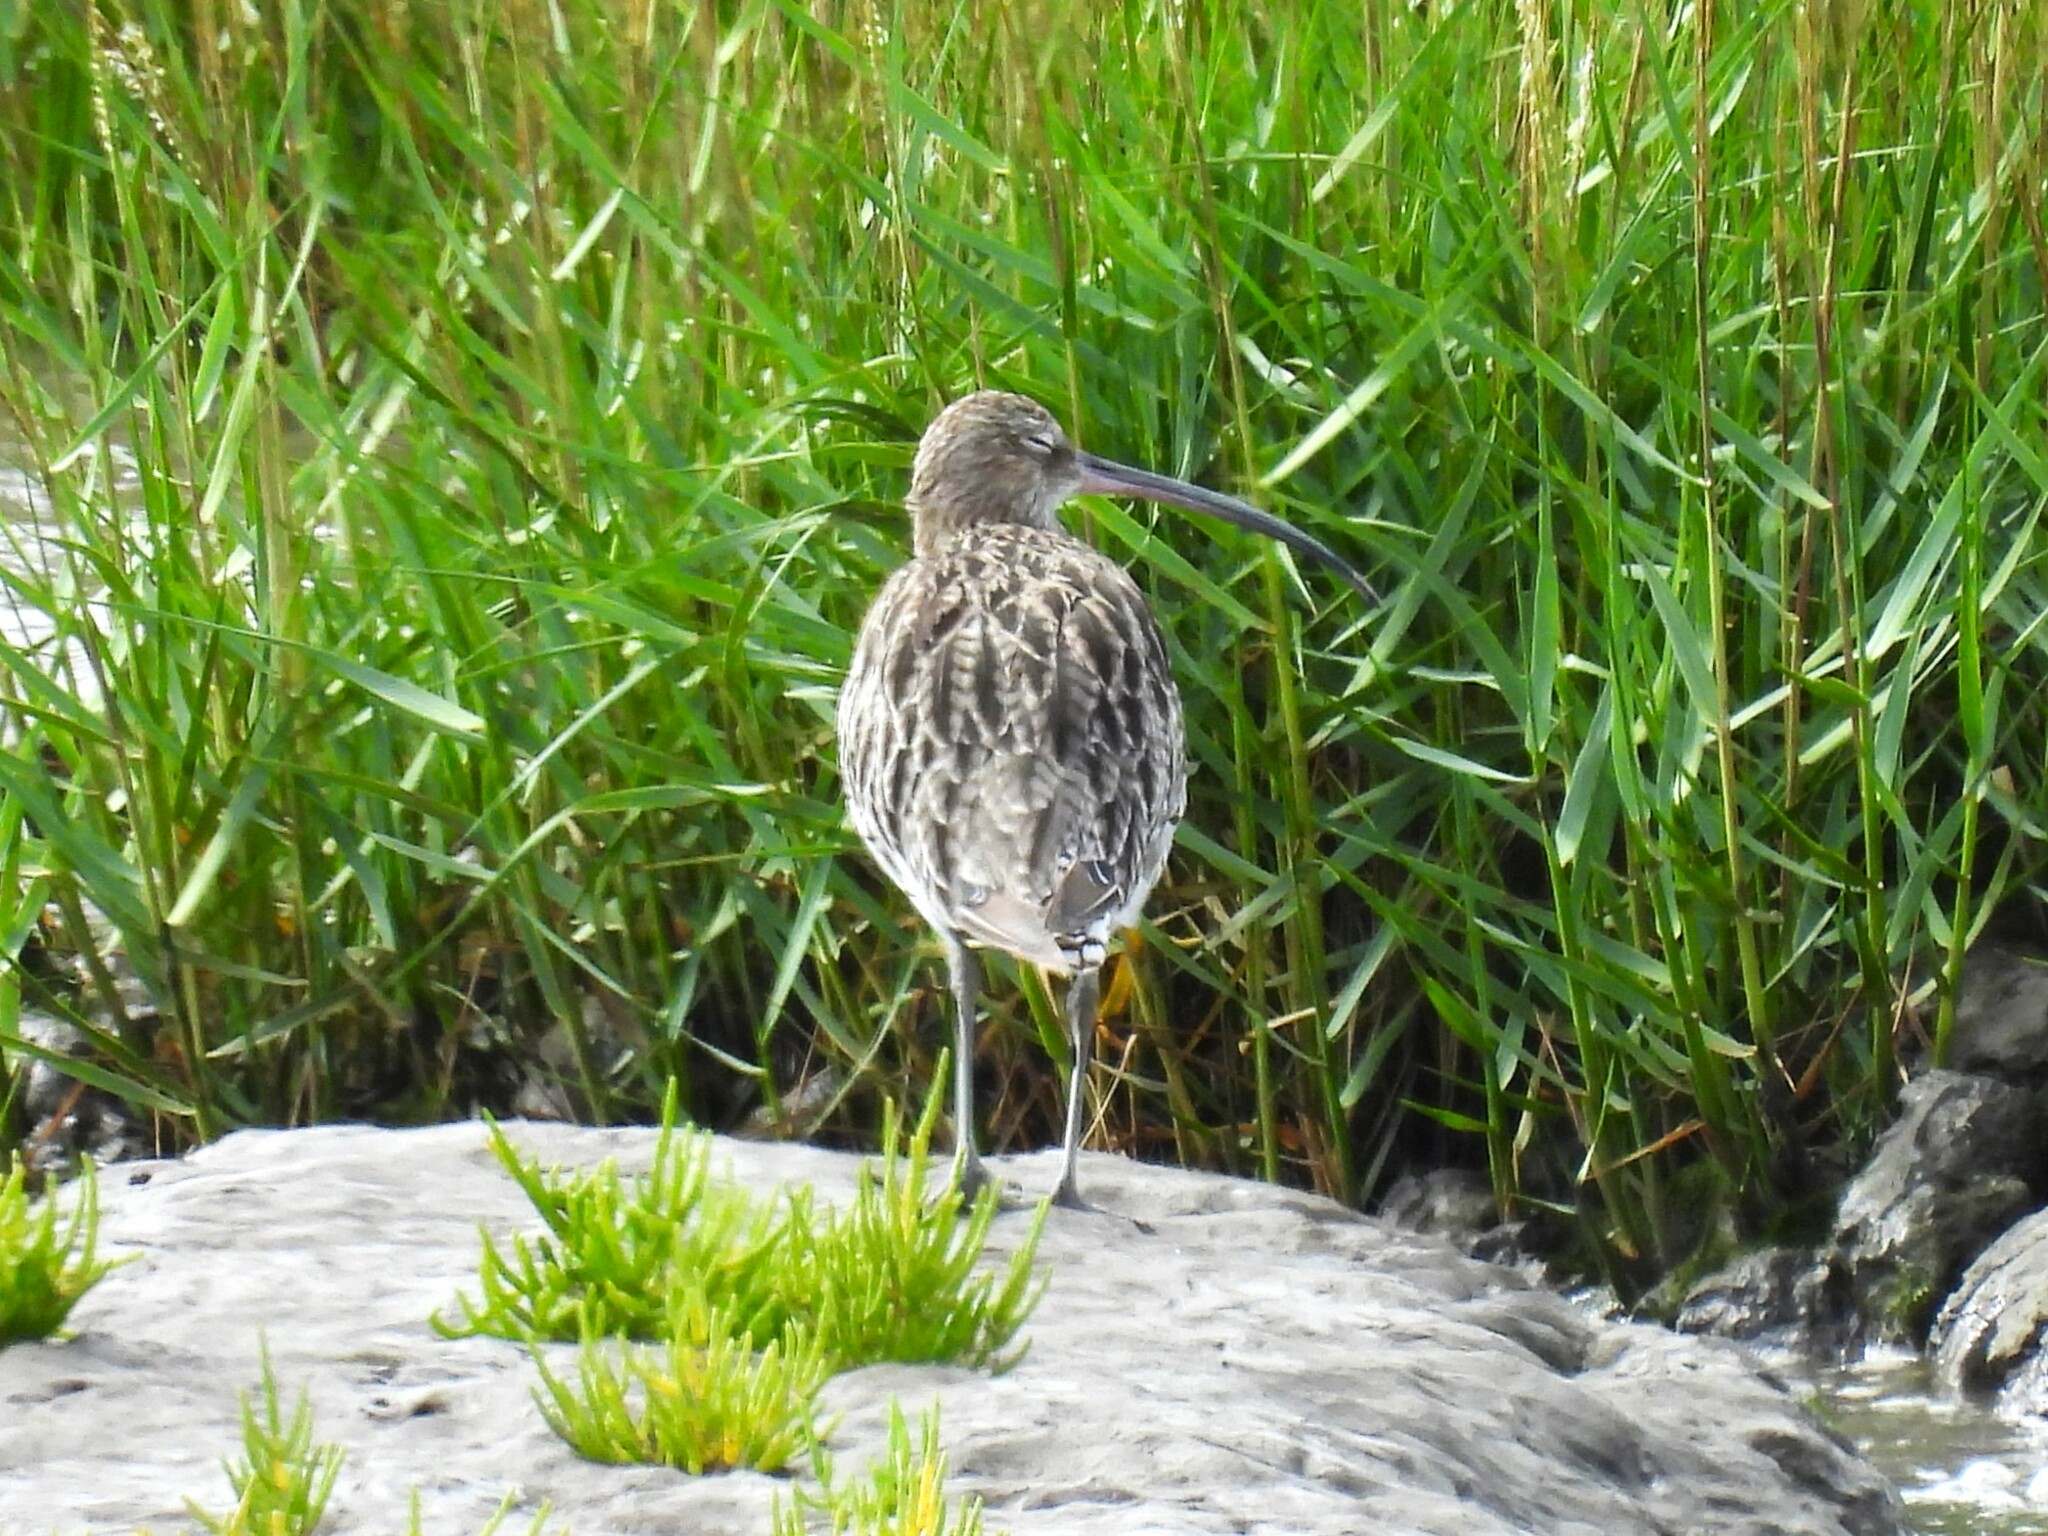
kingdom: Animalia
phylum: Chordata
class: Aves
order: Charadriiformes
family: Scolopacidae
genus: Numenius
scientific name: Numenius arquata
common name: Eurasian curlew
